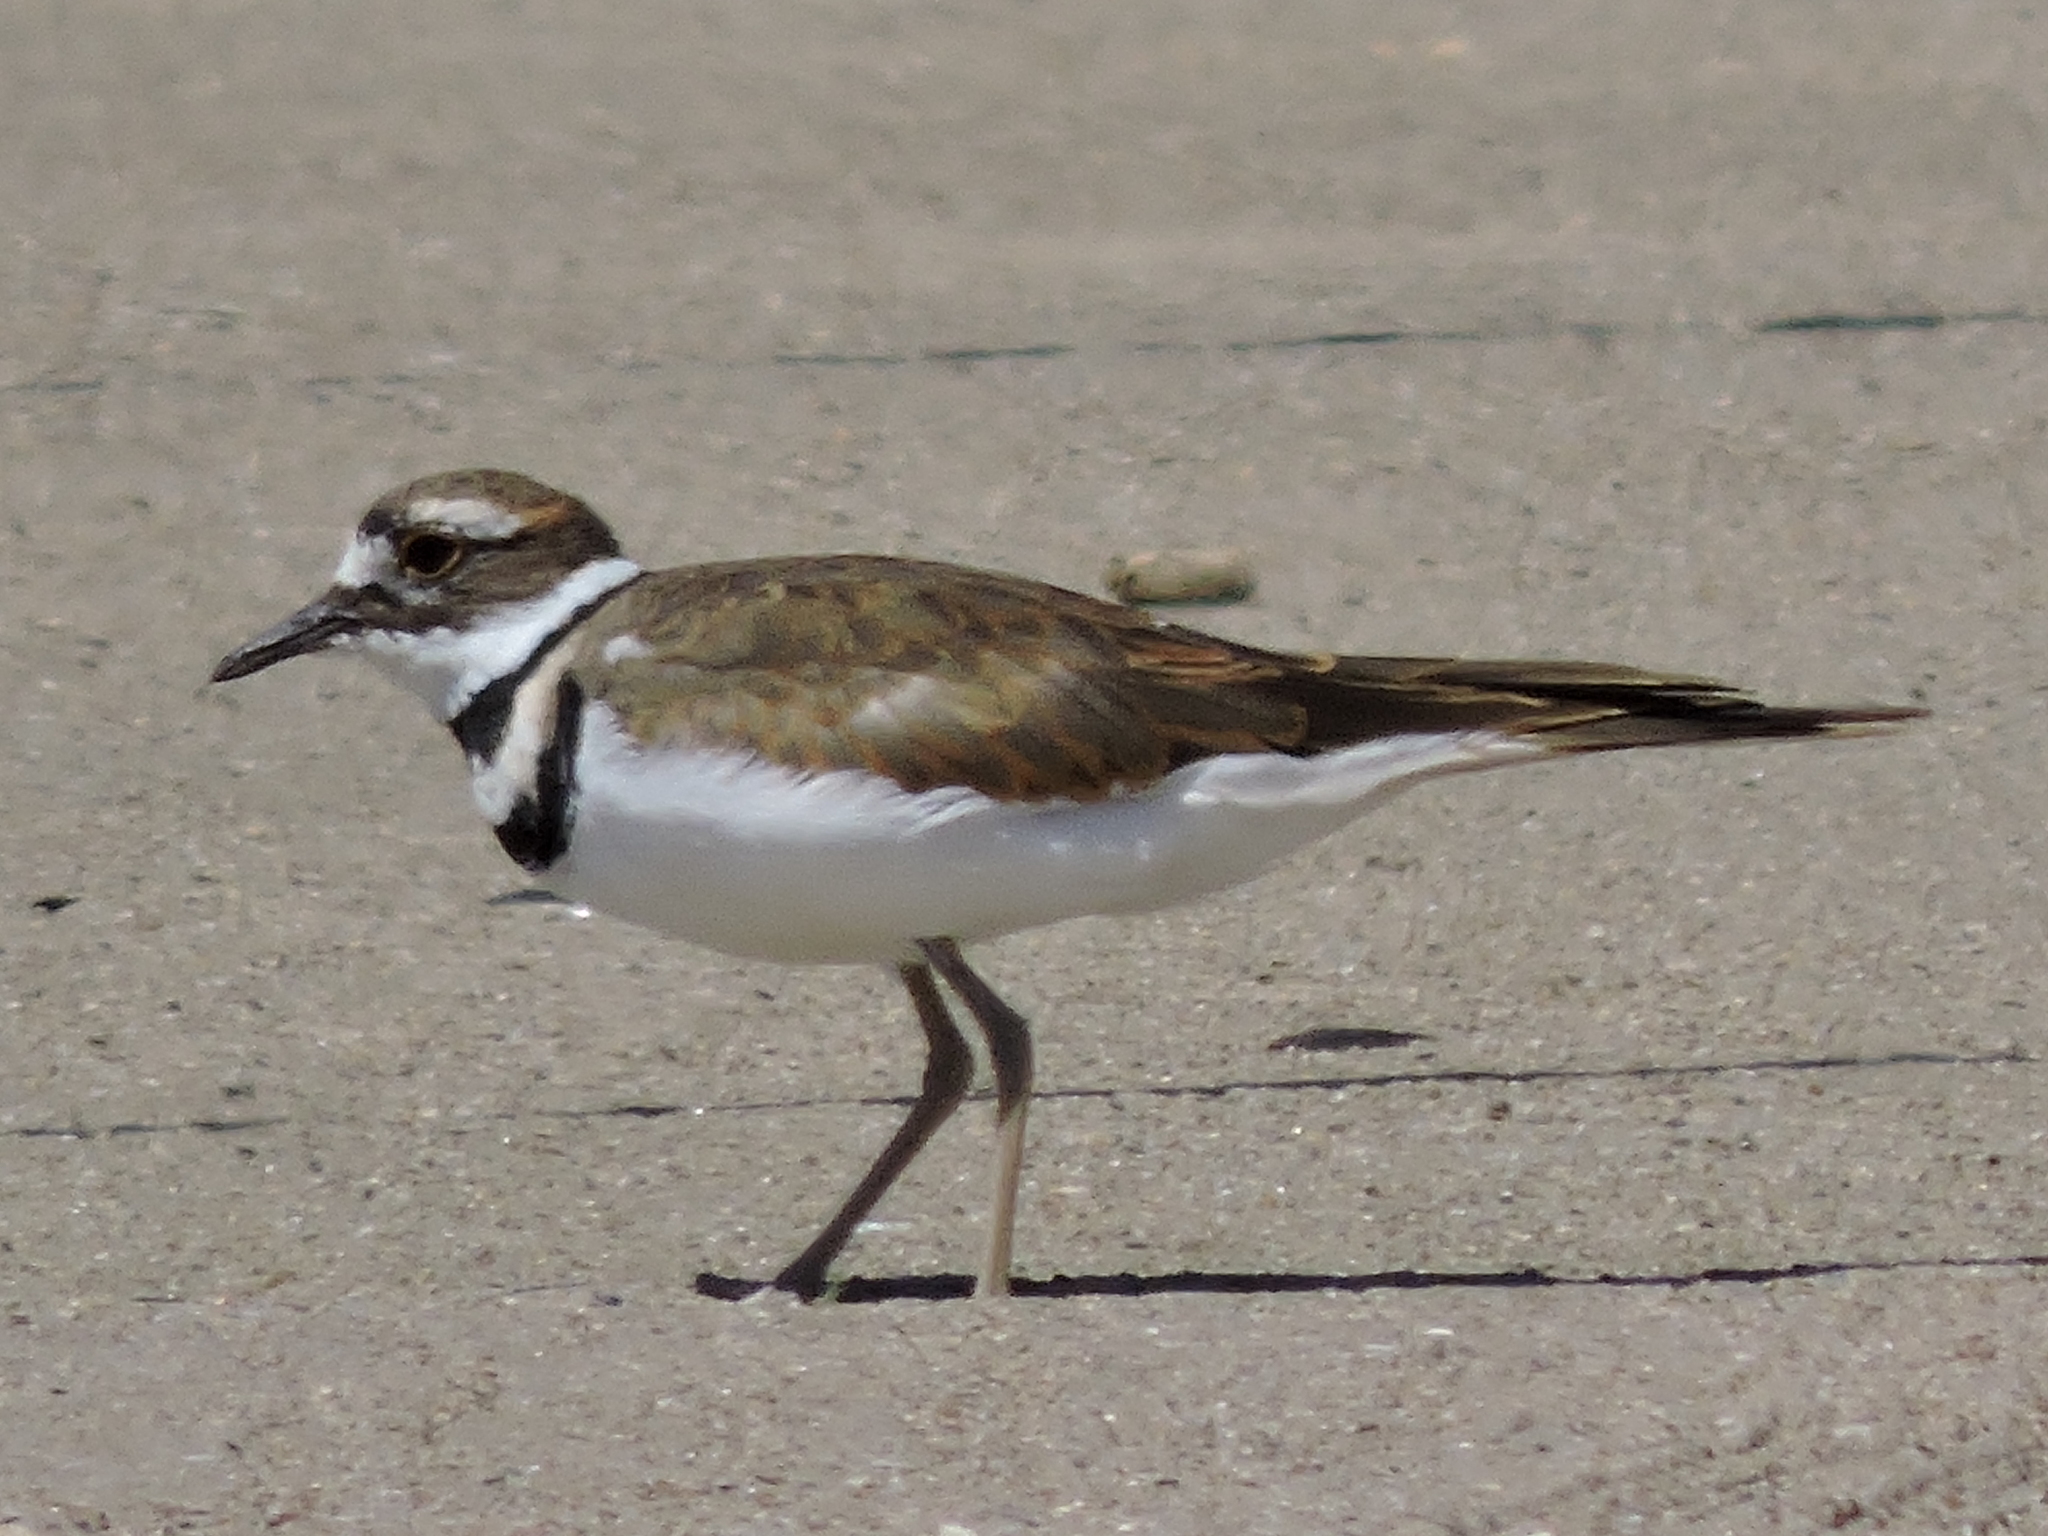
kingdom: Animalia
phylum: Chordata
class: Aves
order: Charadriiformes
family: Charadriidae
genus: Charadrius
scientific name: Charadrius vociferus
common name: Killdeer
